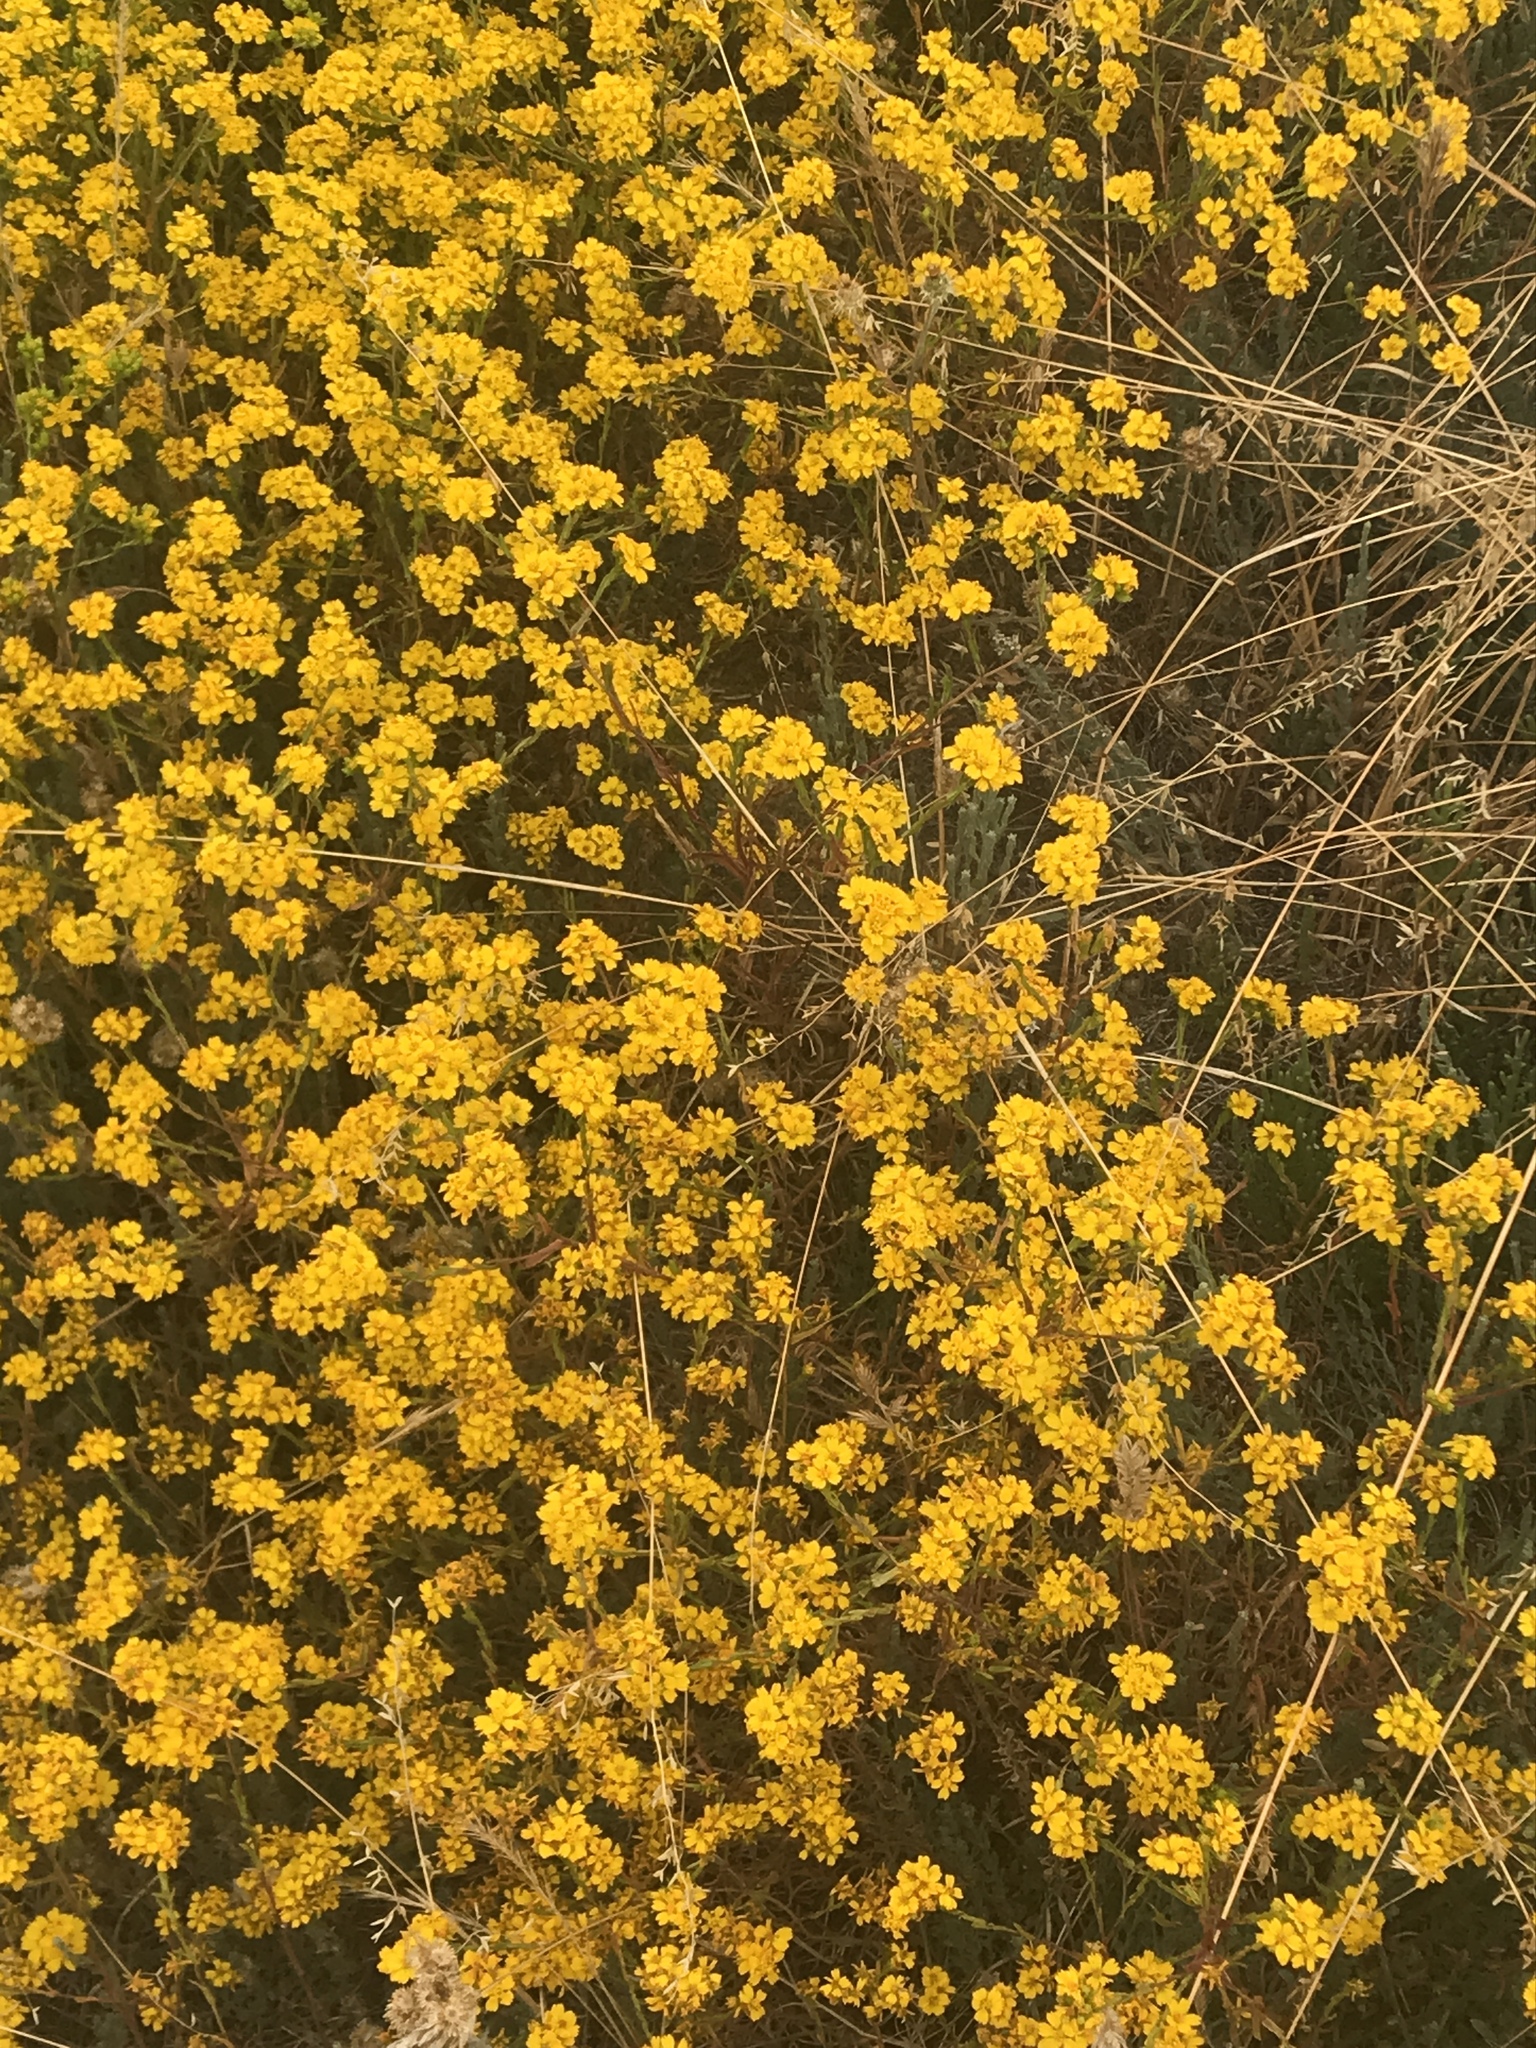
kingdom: Plantae
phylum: Tracheophyta
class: Magnoliopsida
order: Asterales
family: Asteraceae
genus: Deinandra
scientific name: Deinandra fasciculata
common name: Clustered tarweed
